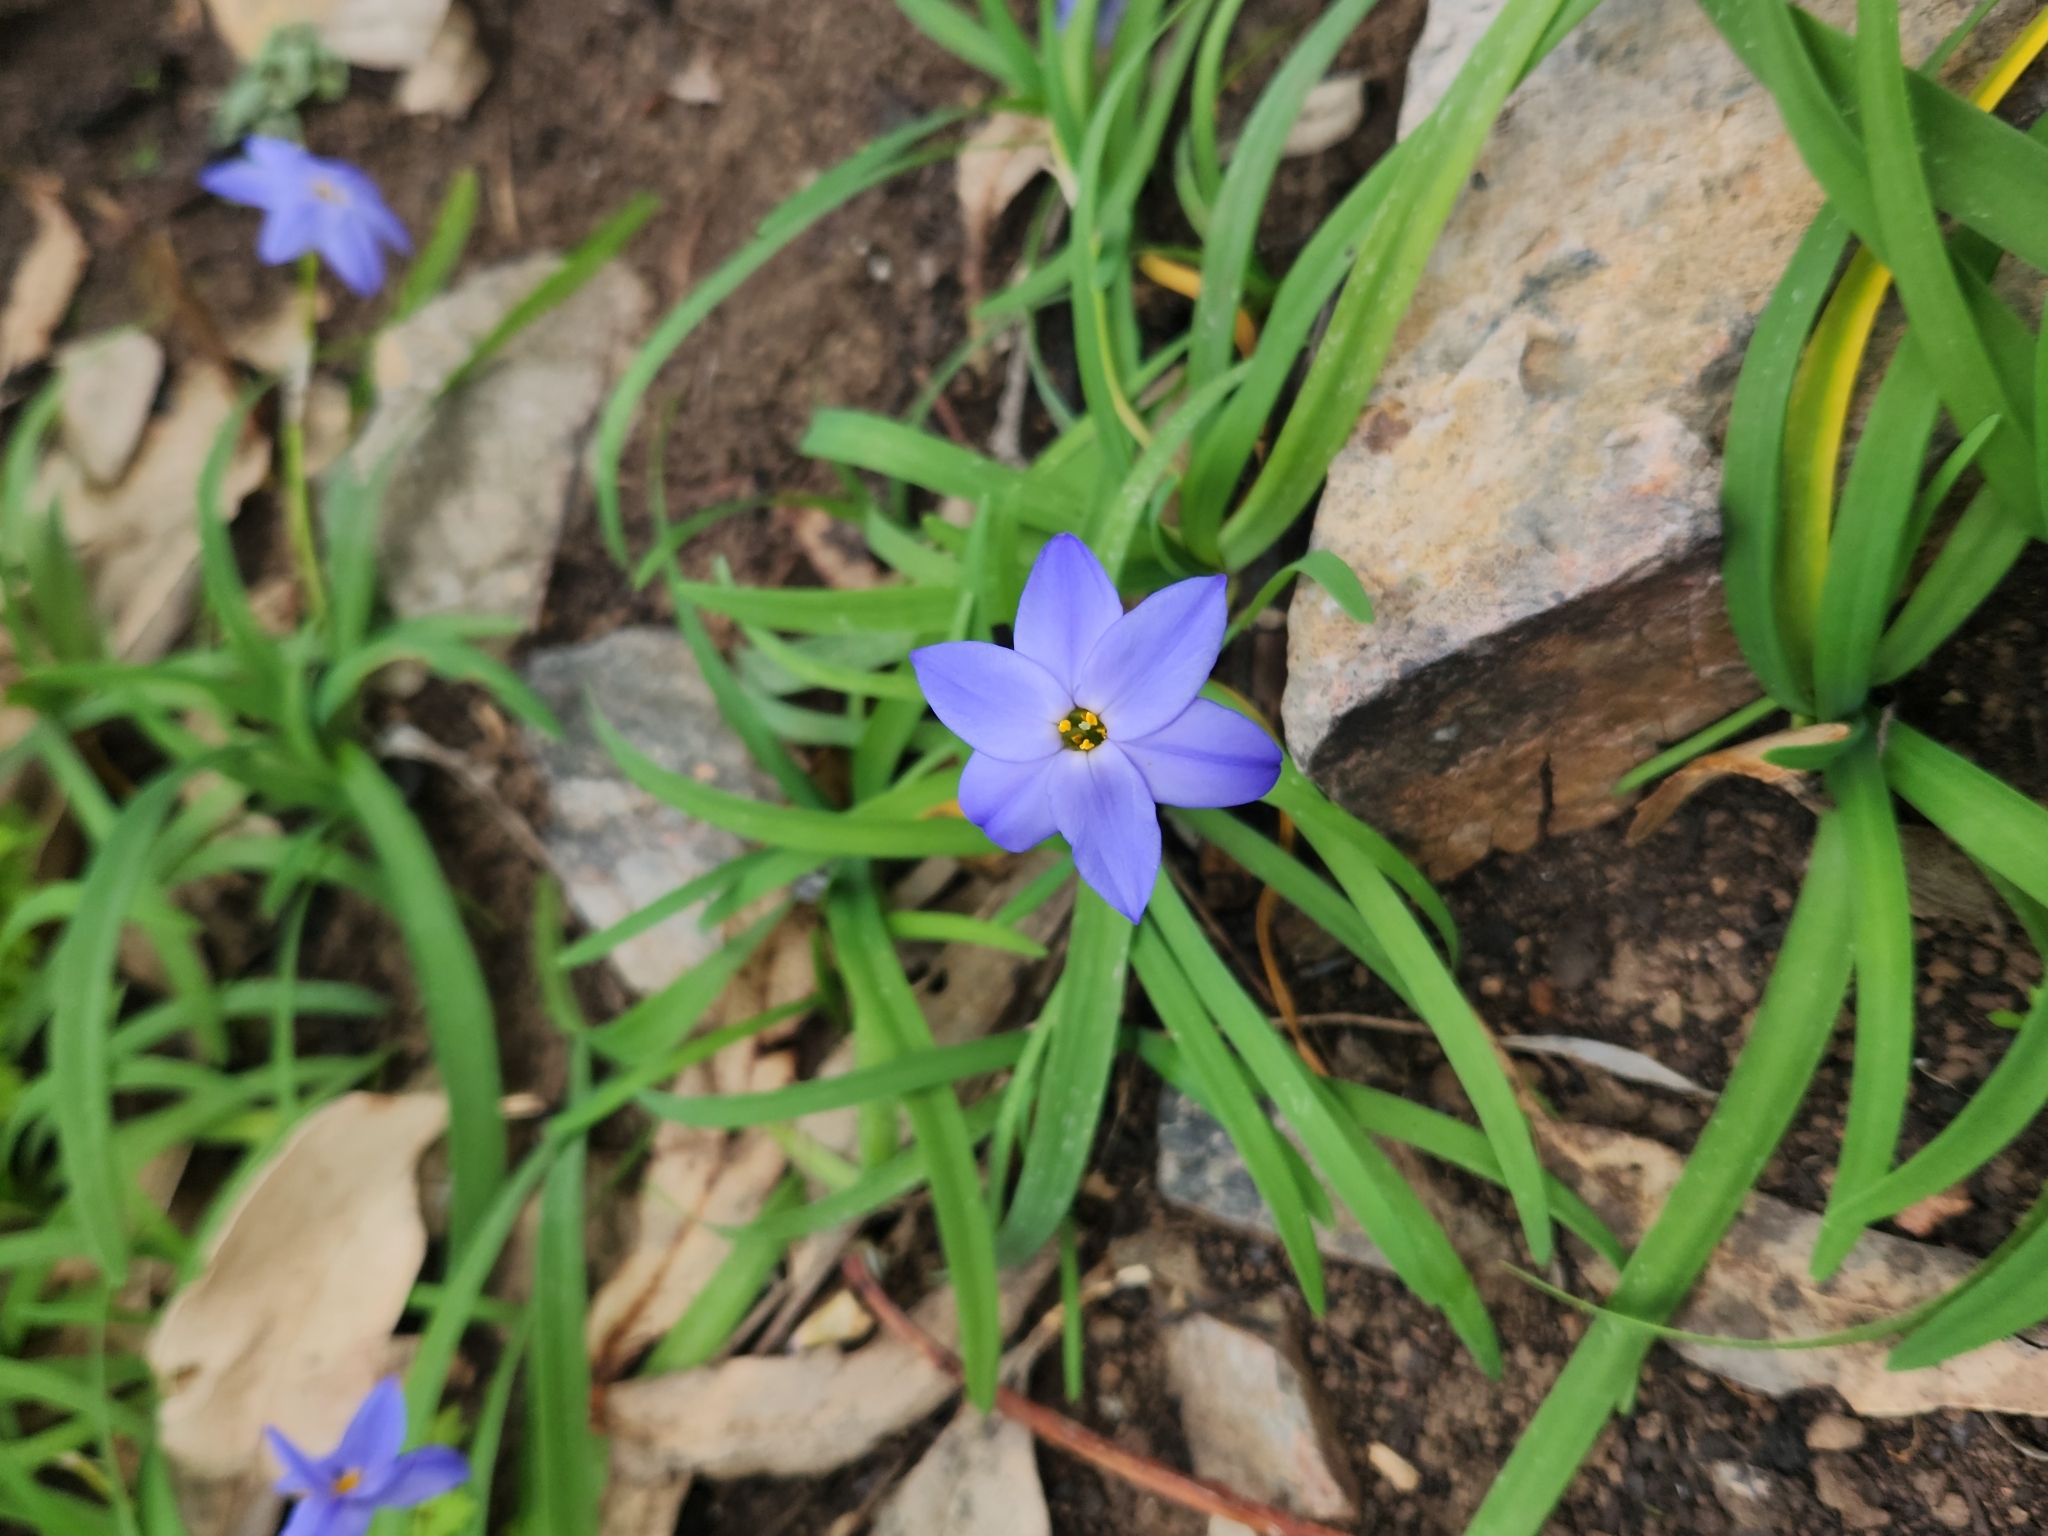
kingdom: Plantae
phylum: Tracheophyta
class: Liliopsida
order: Asparagales
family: Amaryllidaceae
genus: Ipheion
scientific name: Ipheion uniflorum
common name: Spring starflower
